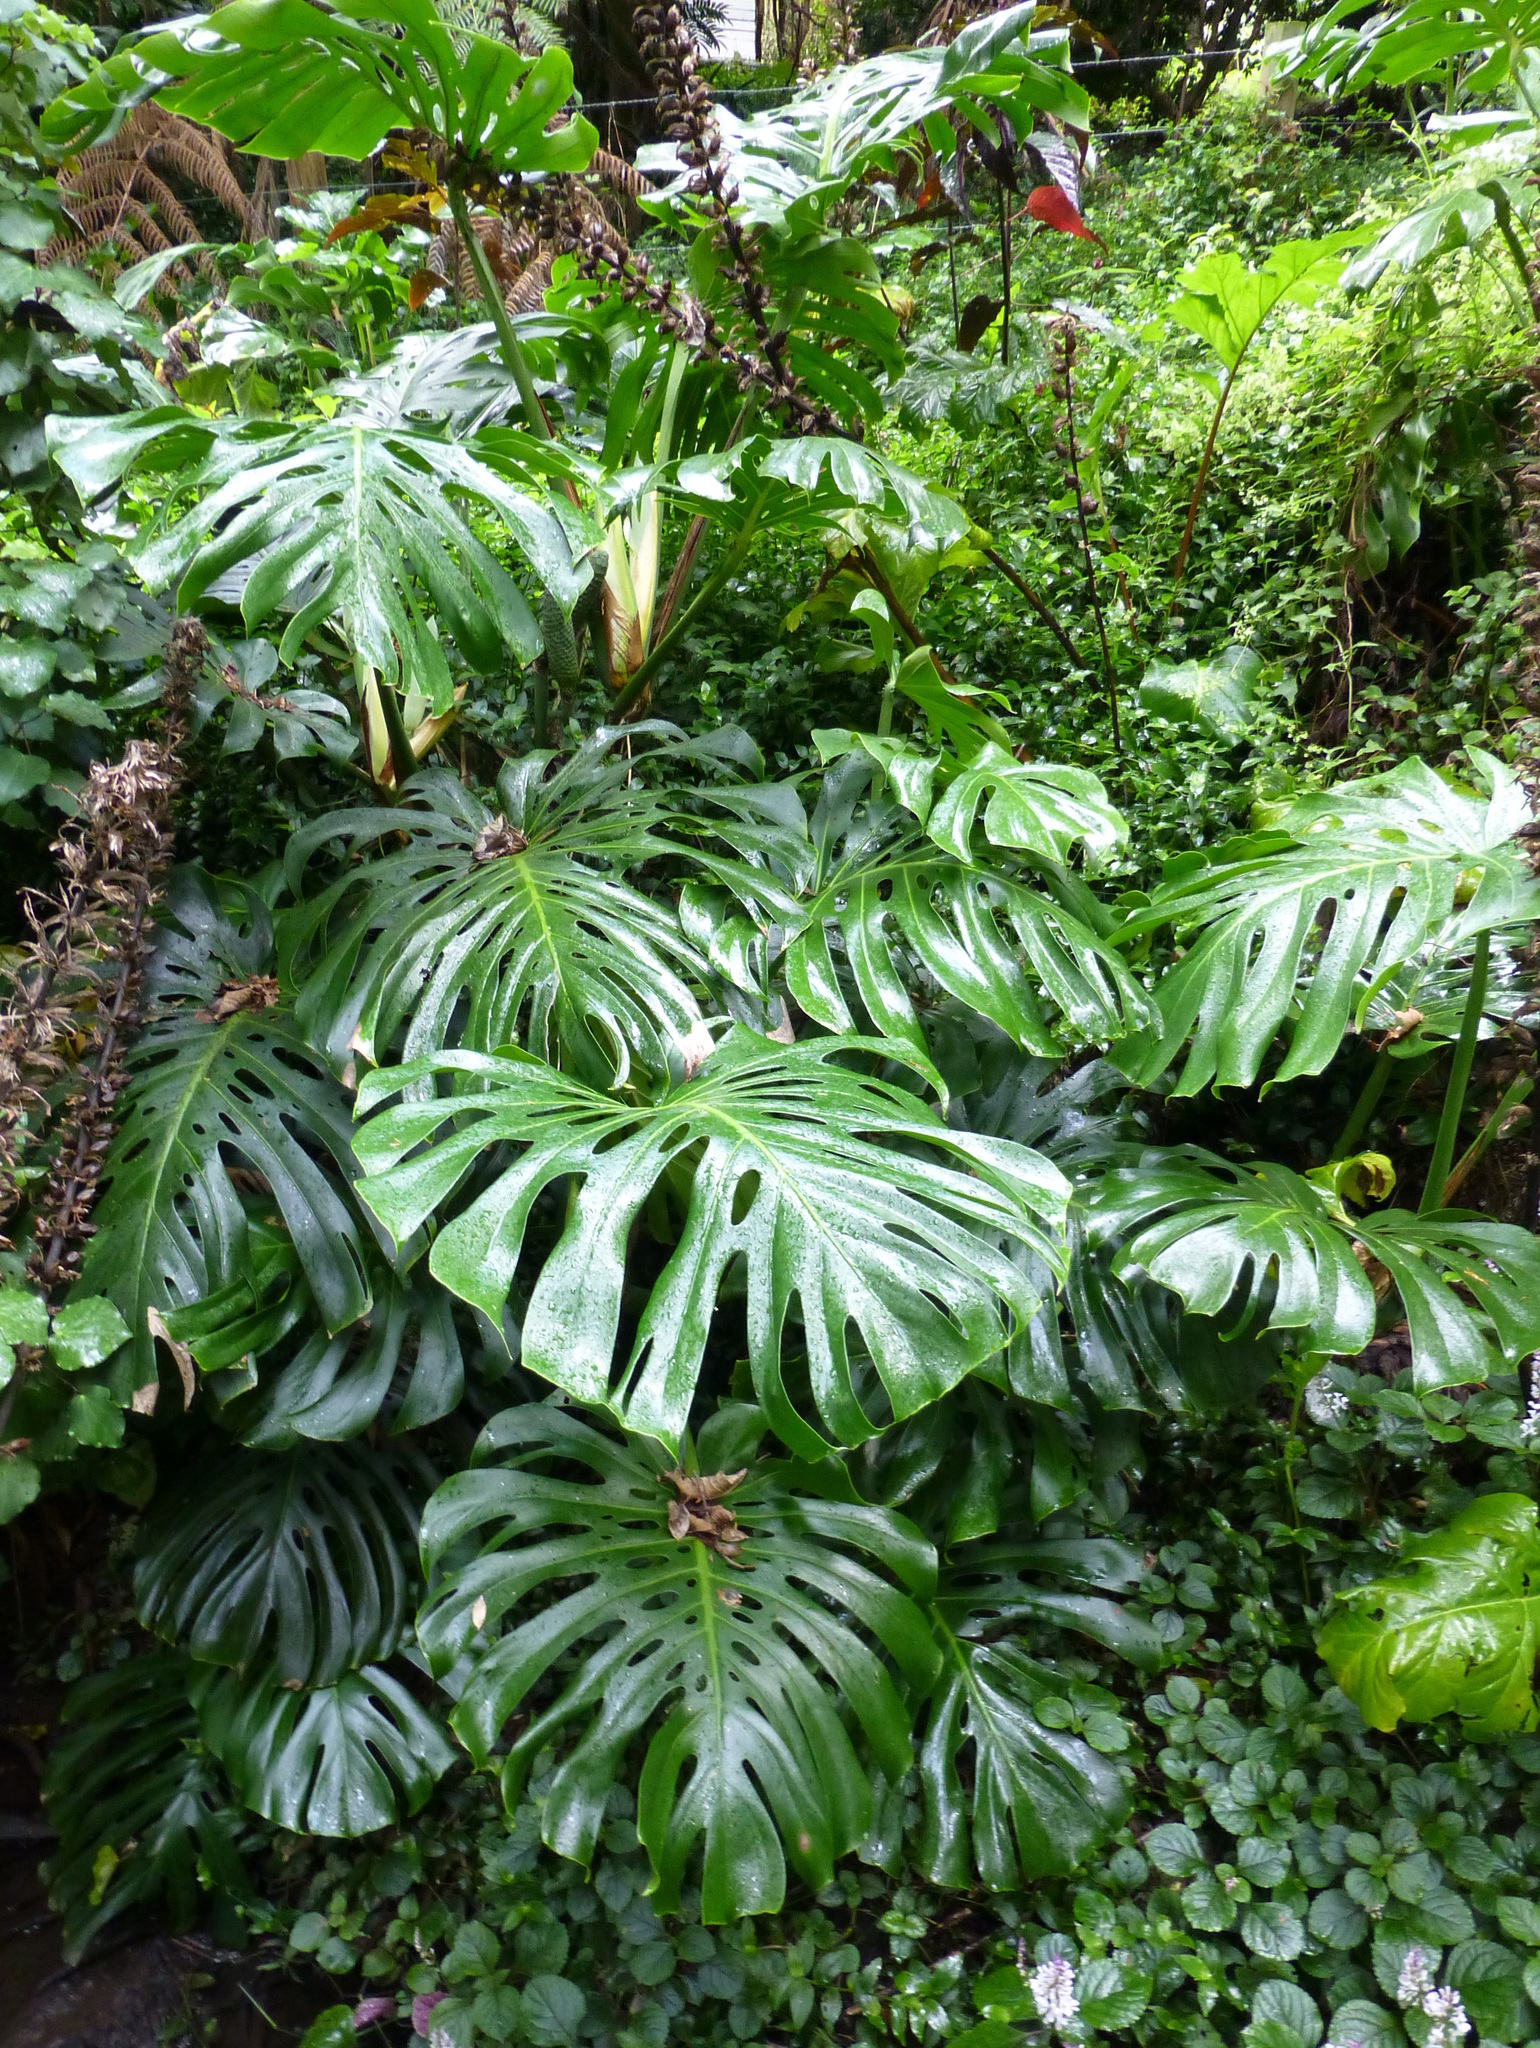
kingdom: Plantae
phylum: Tracheophyta
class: Liliopsida
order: Alismatales
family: Araceae
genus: Monstera
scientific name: Monstera deliciosa
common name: Cut-leaf-philodendron
